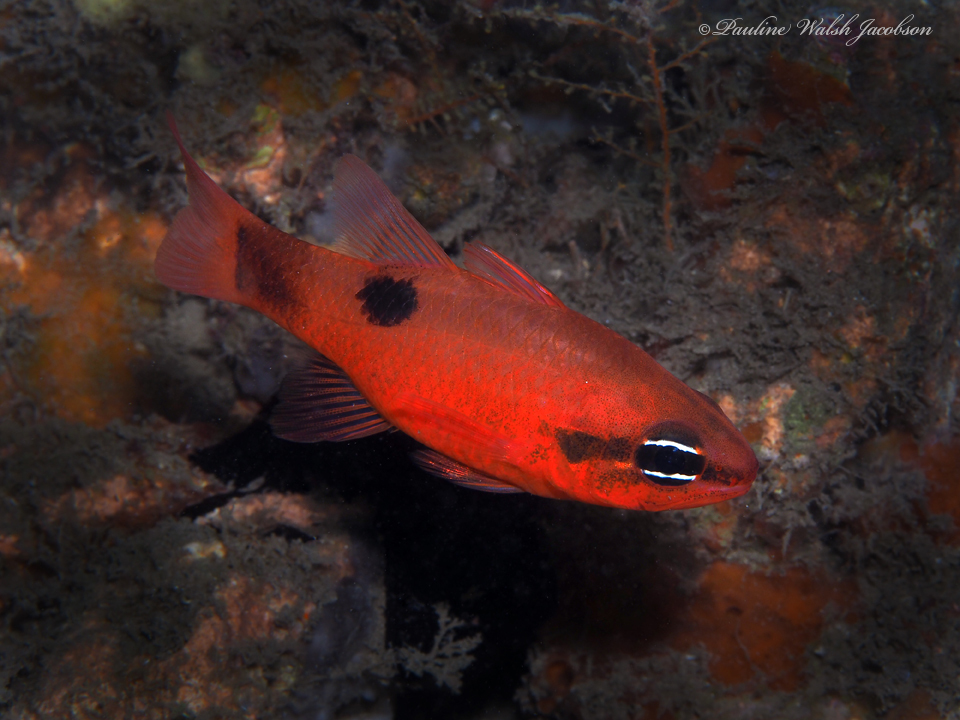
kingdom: Animalia
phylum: Chordata
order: Perciformes
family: Apogonidae
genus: Apogon
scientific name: Apogon maculatus
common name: Flamefish
